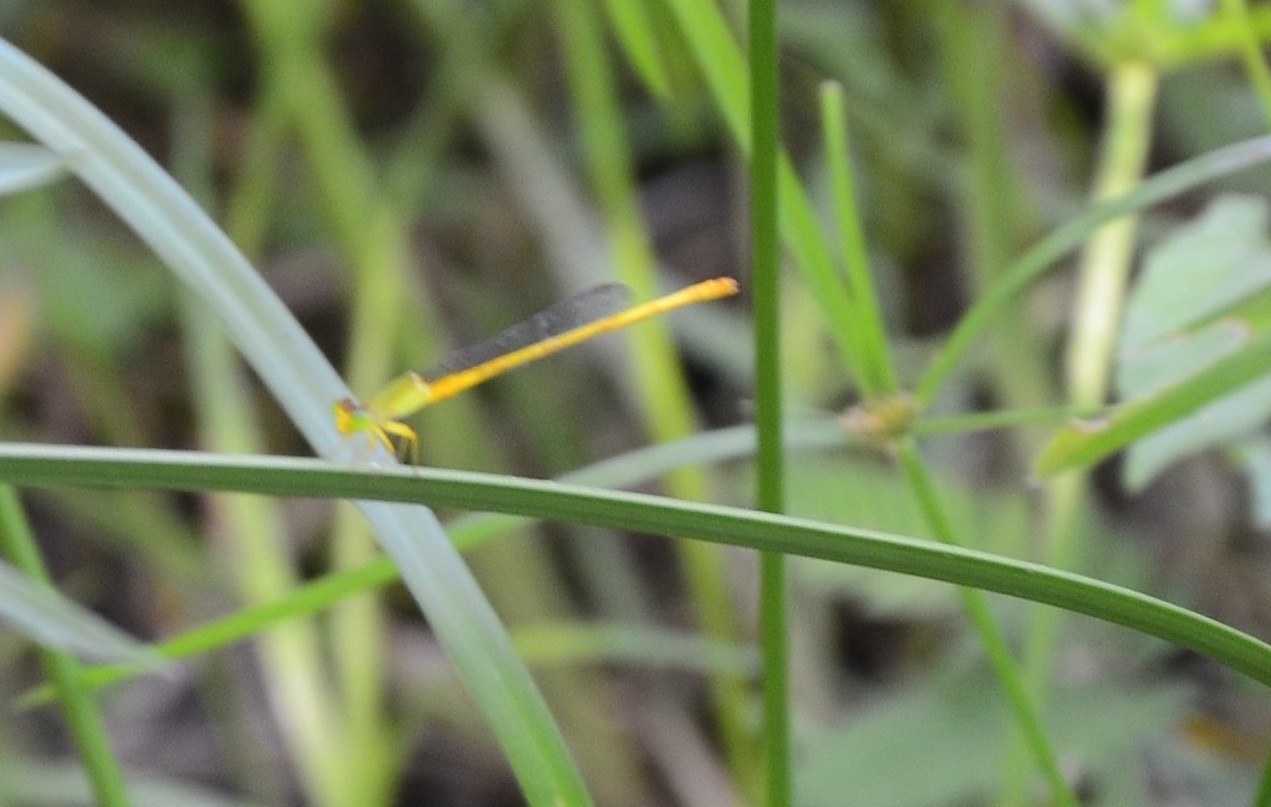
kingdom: Animalia
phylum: Arthropoda
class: Insecta
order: Odonata
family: Coenagrionidae
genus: Ceriagrion
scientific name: Ceriagrion coromandelianum
